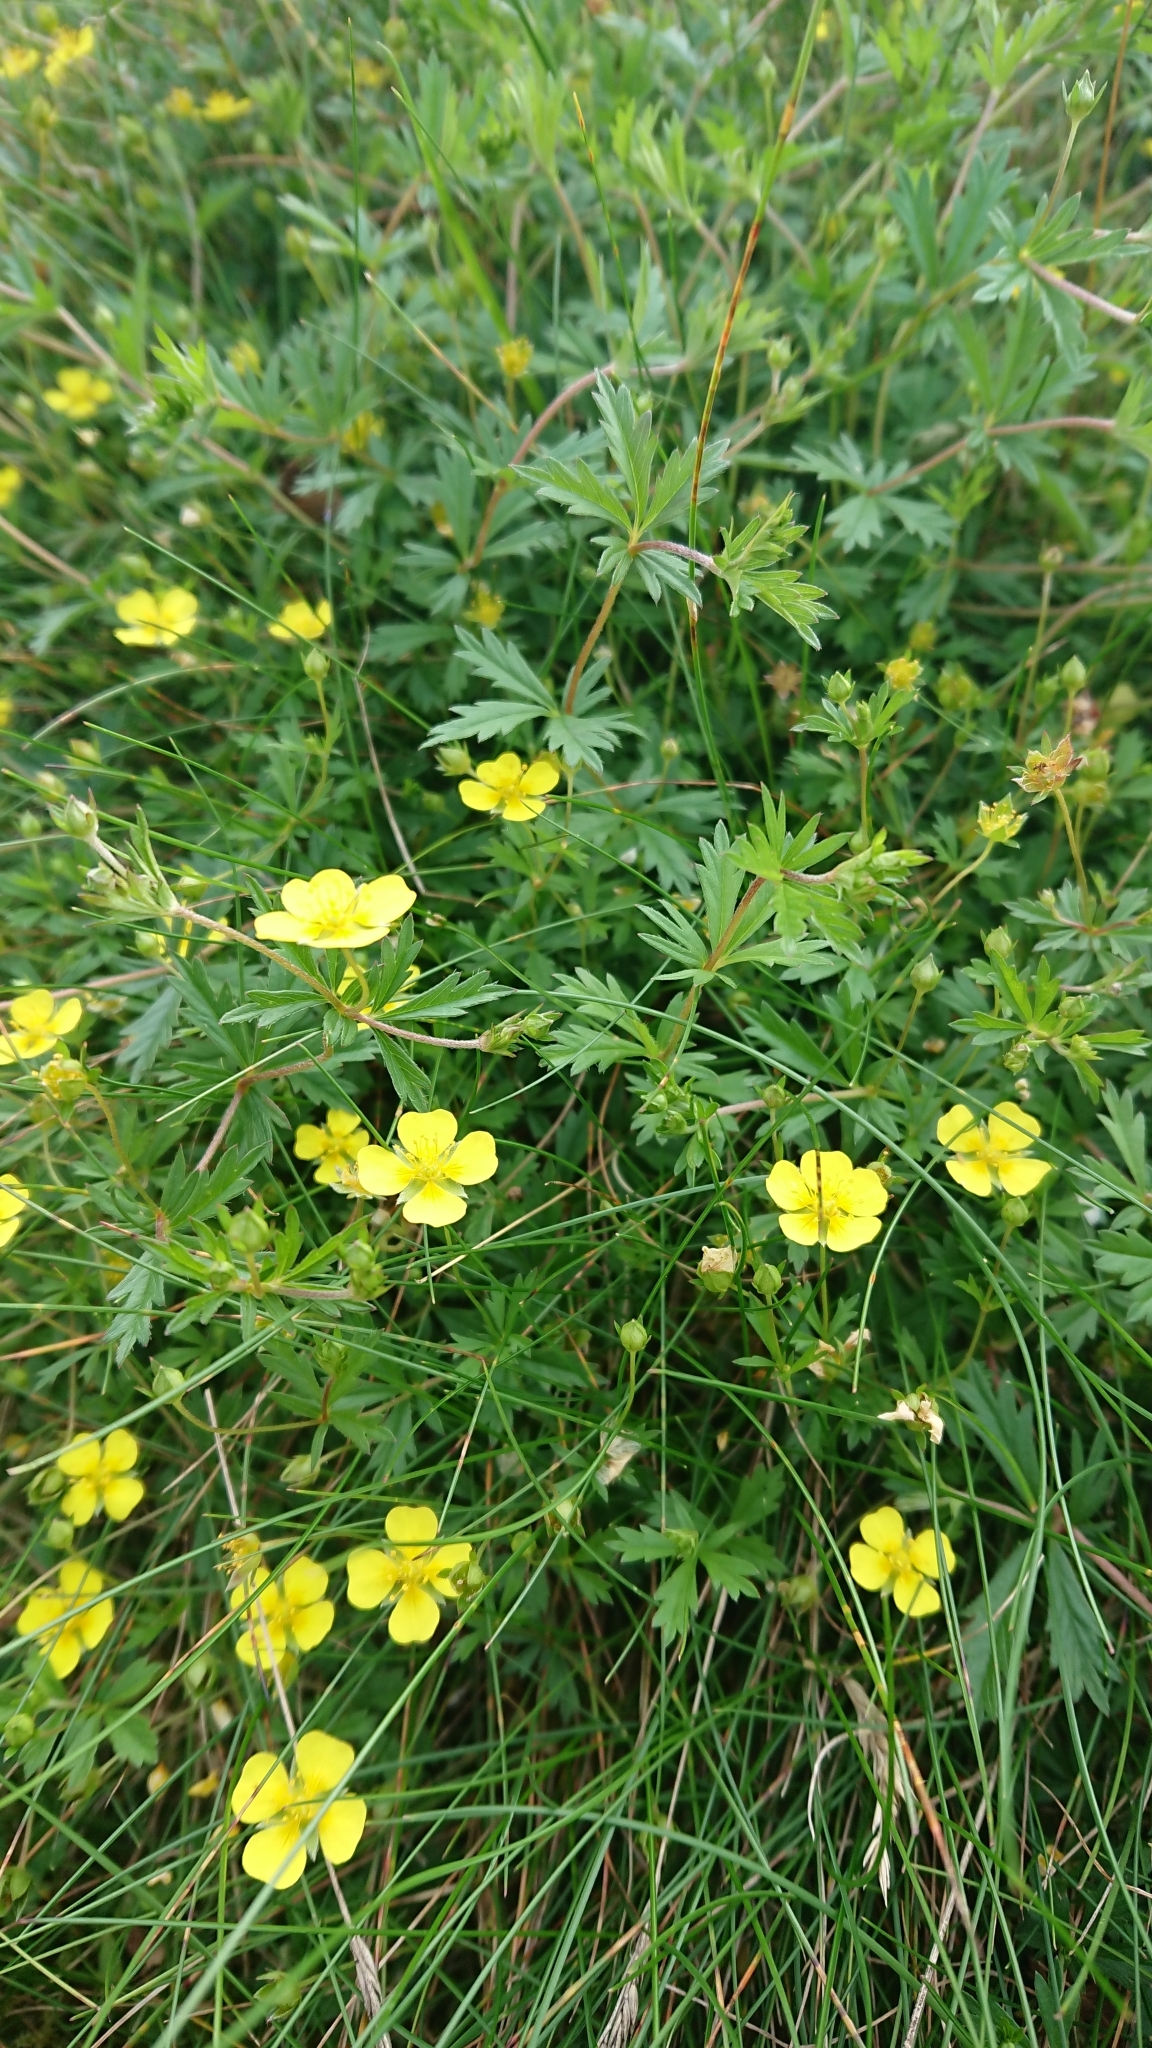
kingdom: Plantae
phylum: Tracheophyta
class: Magnoliopsida
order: Rosales
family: Rosaceae
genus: Potentilla
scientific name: Potentilla erecta
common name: Tormentil
